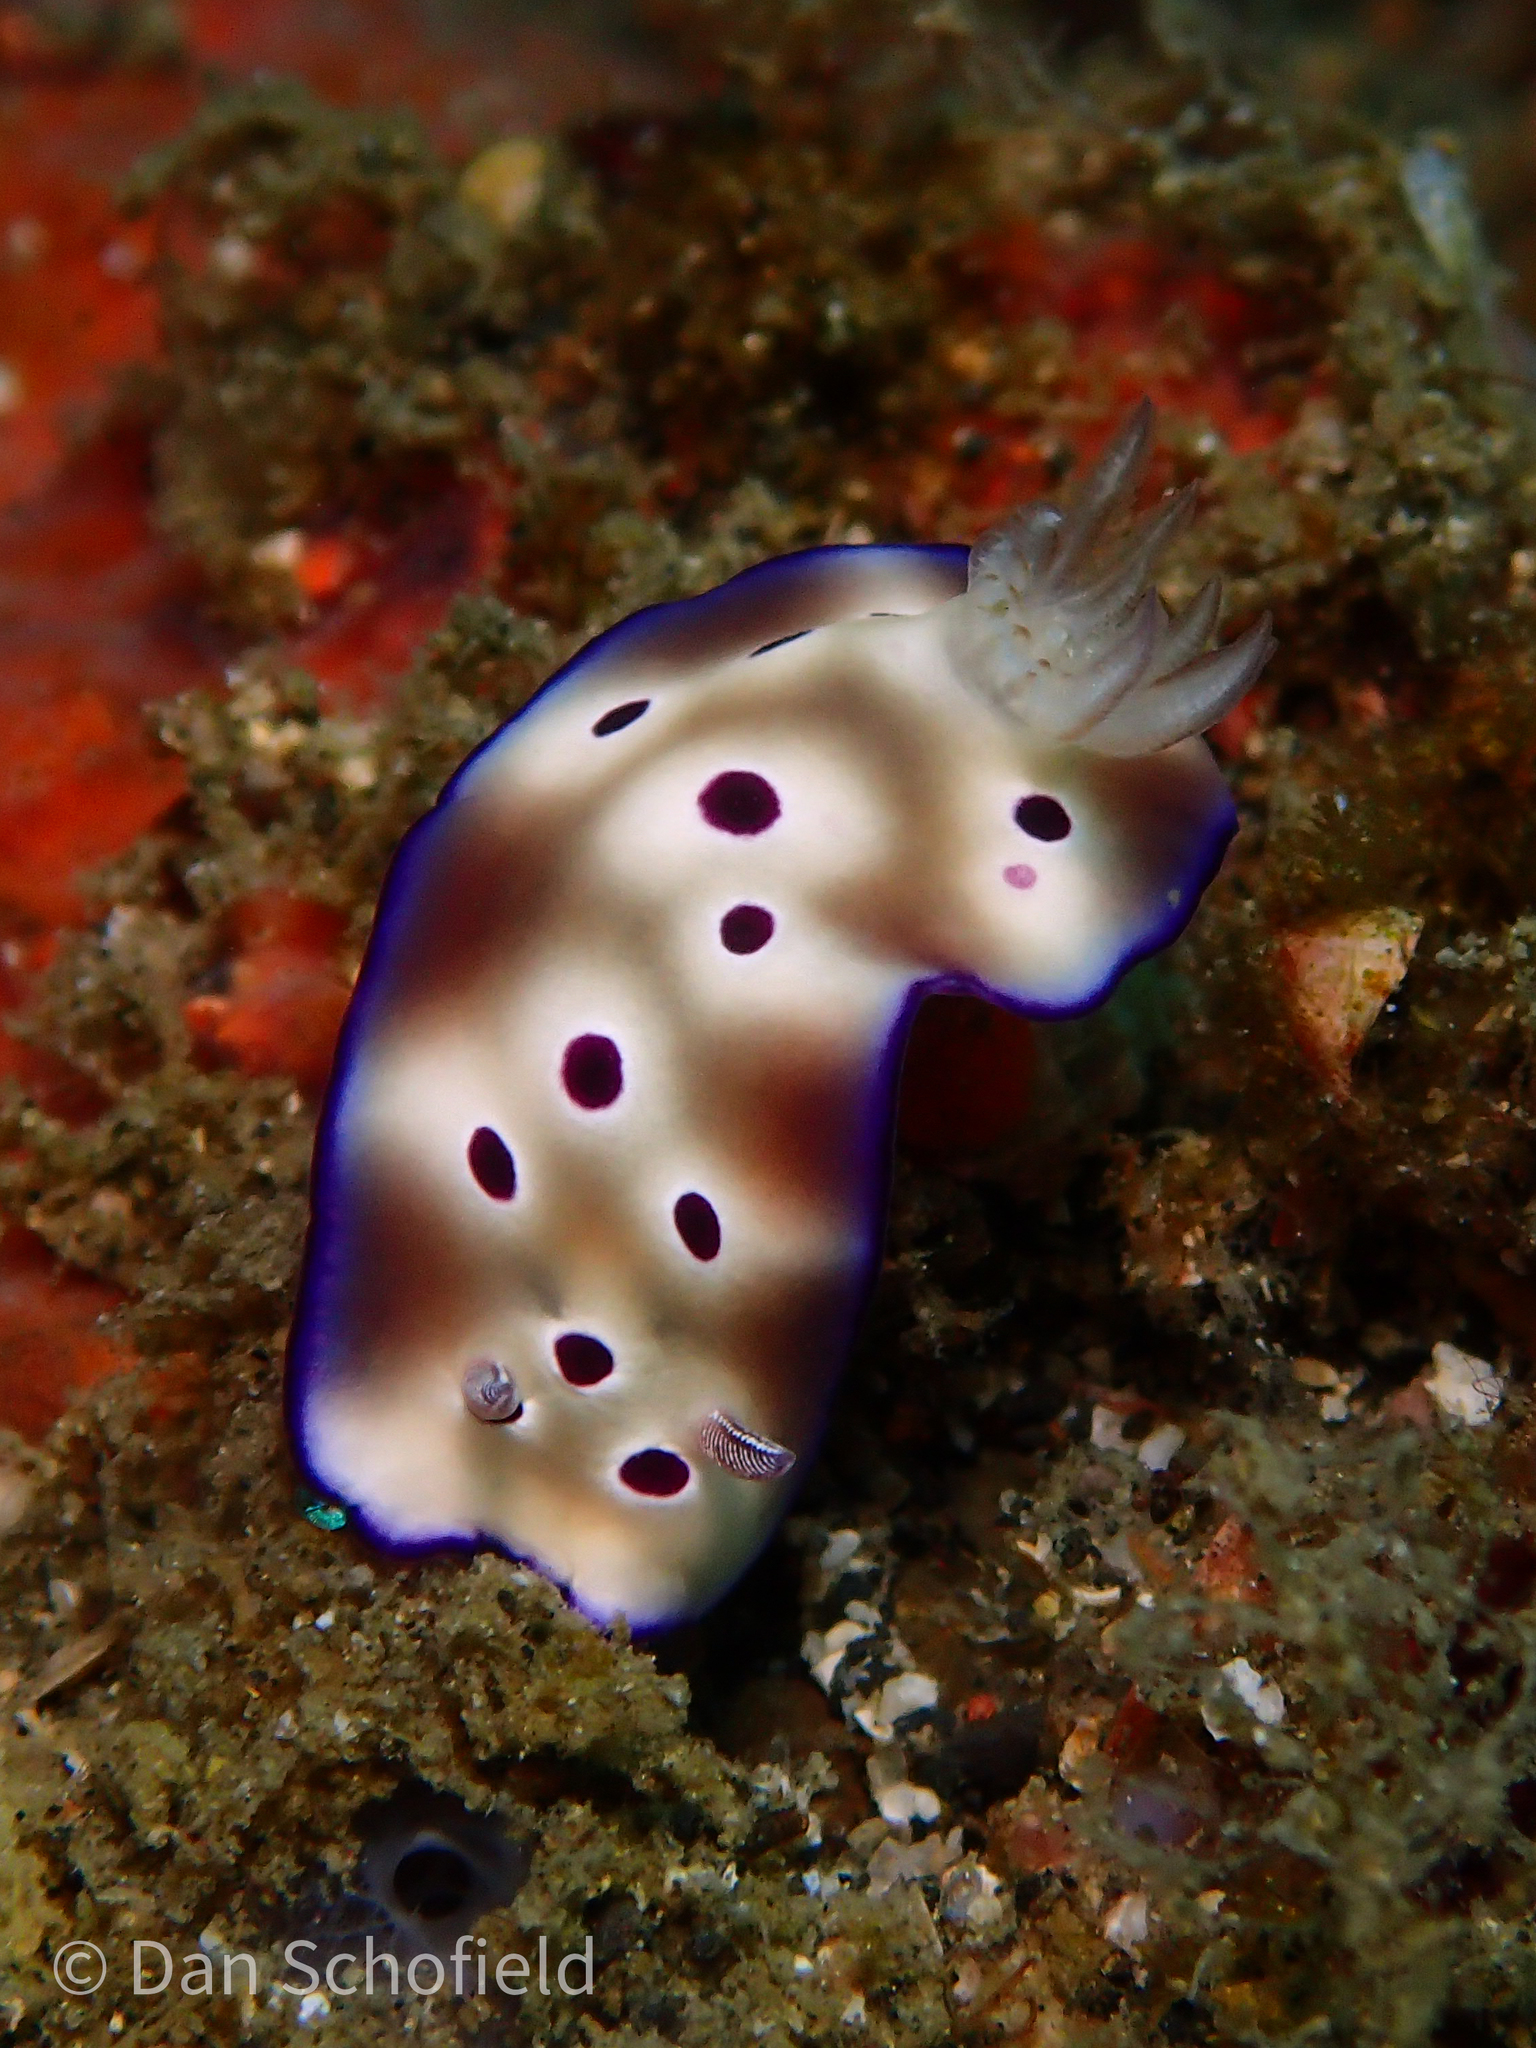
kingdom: Animalia
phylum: Mollusca
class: Gastropoda
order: Nudibranchia
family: Chromodorididae
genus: Hypselodoris
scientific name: Hypselodoris tryoni
